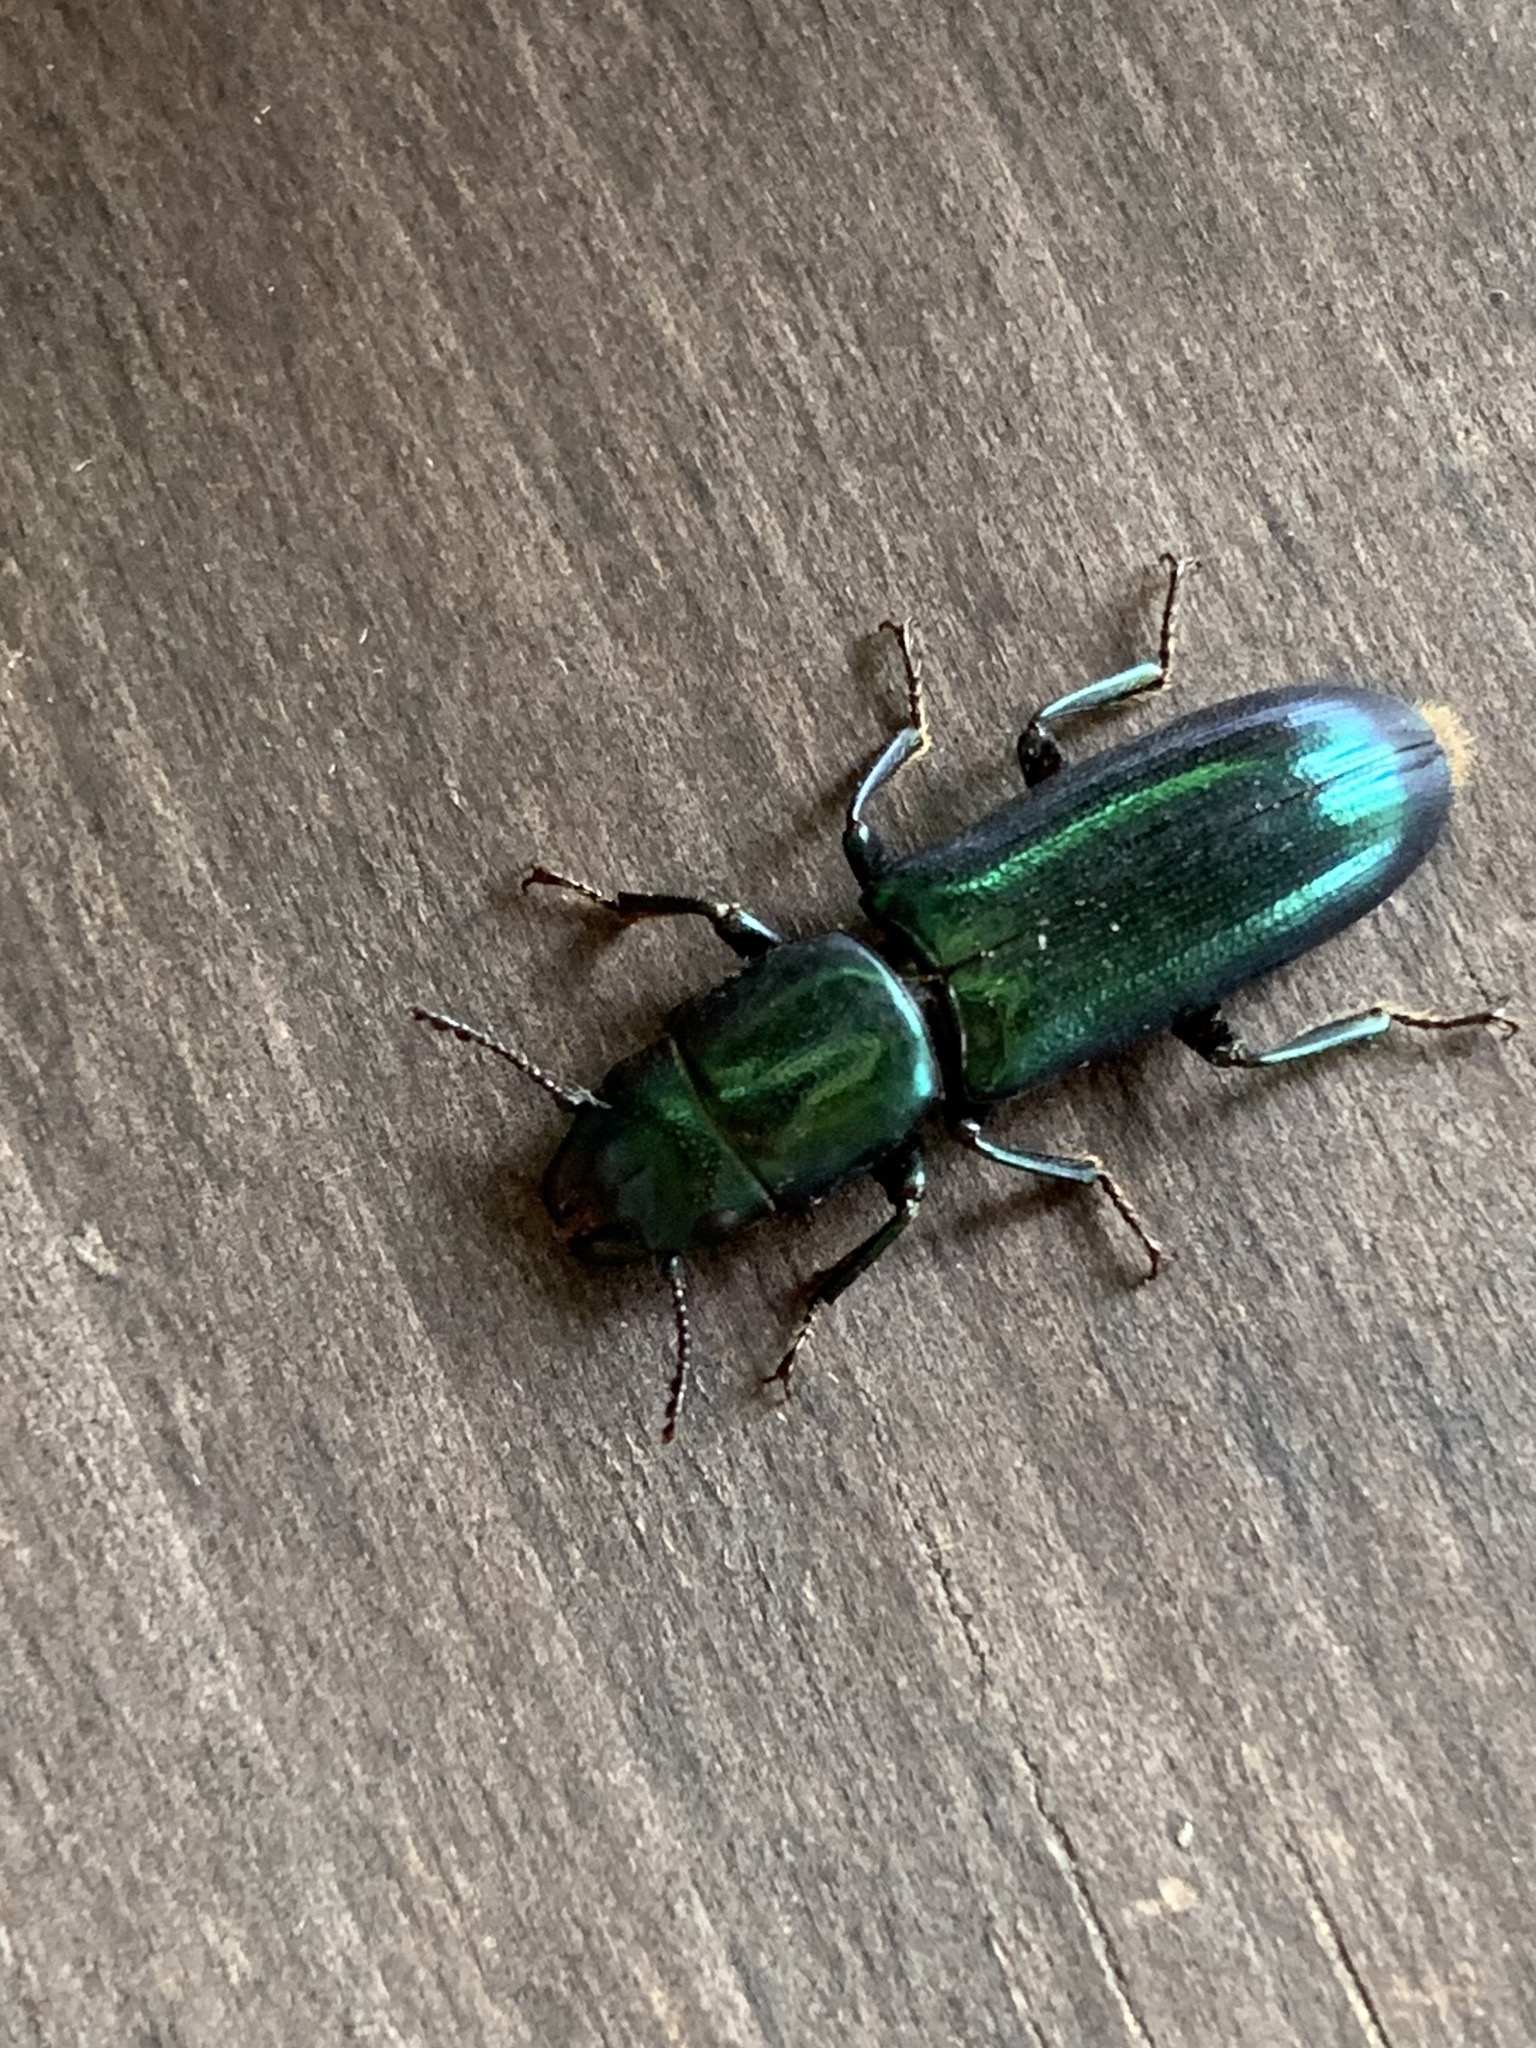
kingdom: Animalia
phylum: Arthropoda
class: Insecta
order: Coleoptera
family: Trogossitidae
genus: Temnochila
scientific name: Temnochila virescens
